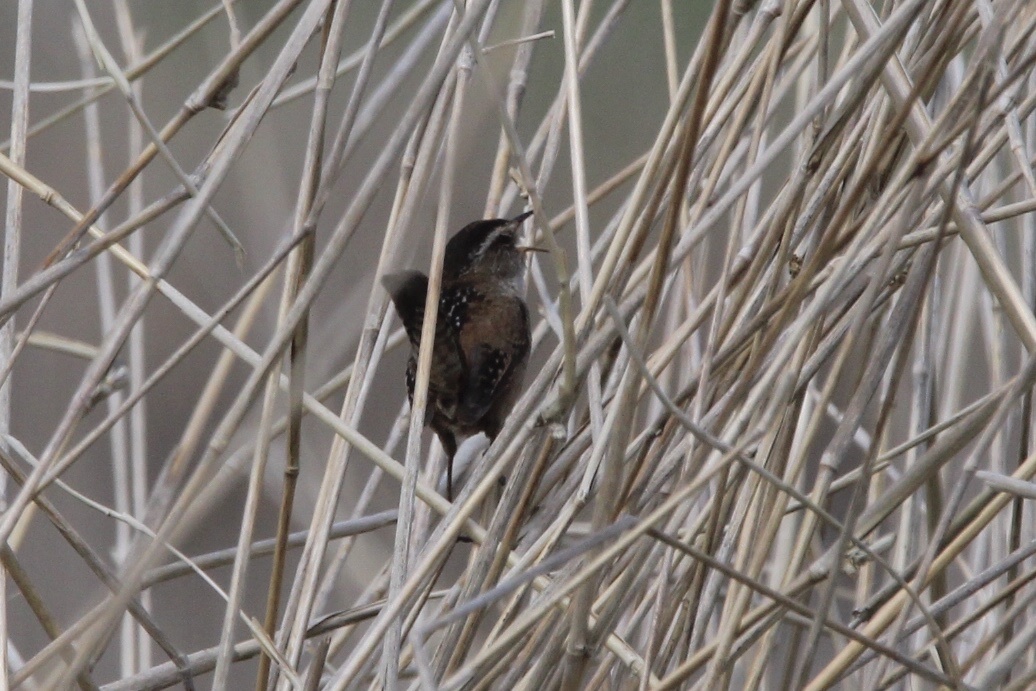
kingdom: Animalia
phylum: Chordata
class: Aves
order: Passeriformes
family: Troglodytidae
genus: Cistothorus
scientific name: Cistothorus palustris
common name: Marsh wren
